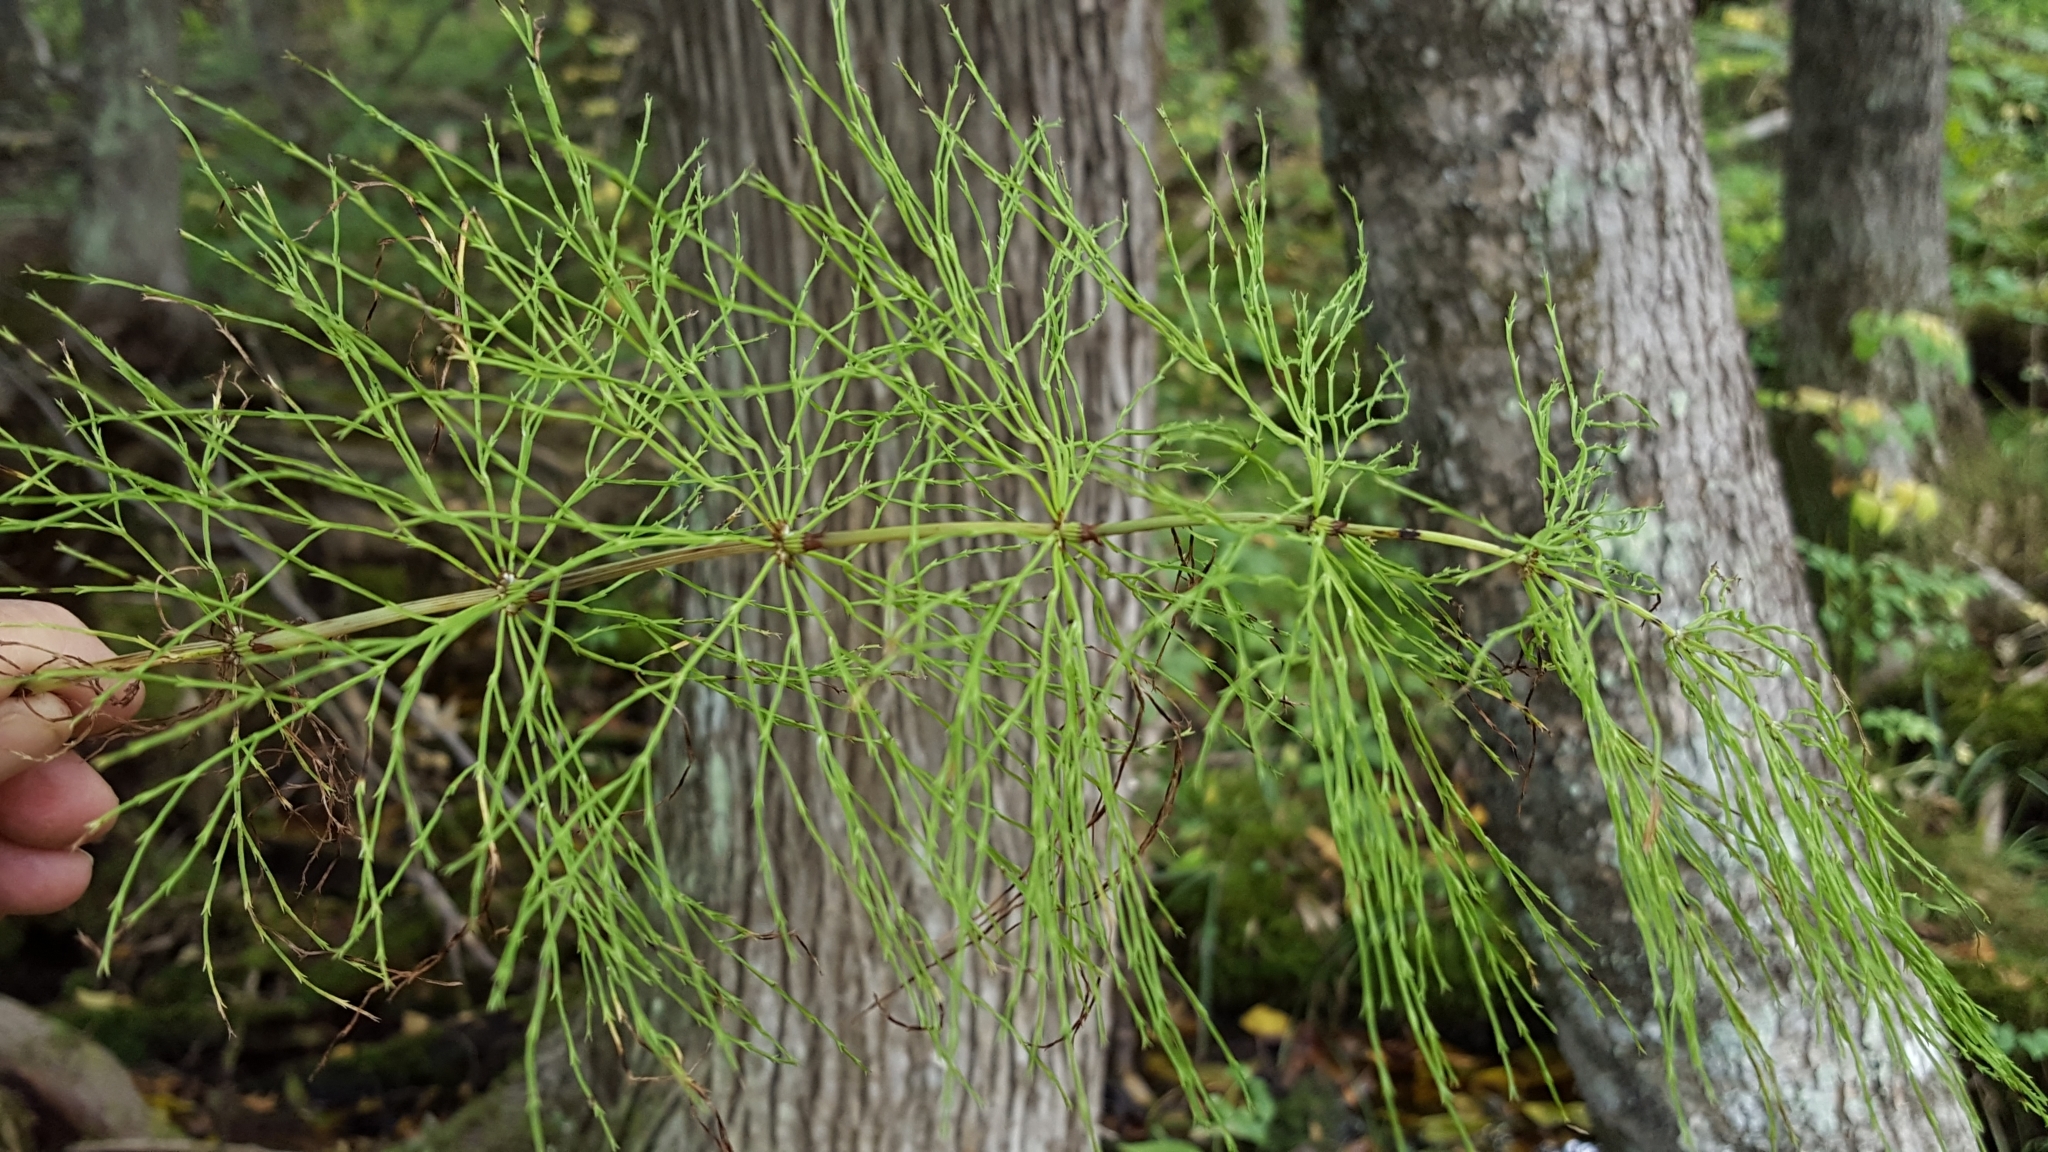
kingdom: Plantae
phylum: Tracheophyta
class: Polypodiopsida
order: Equisetales
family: Equisetaceae
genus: Equisetum
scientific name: Equisetum sylvaticum
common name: Wood horsetail
